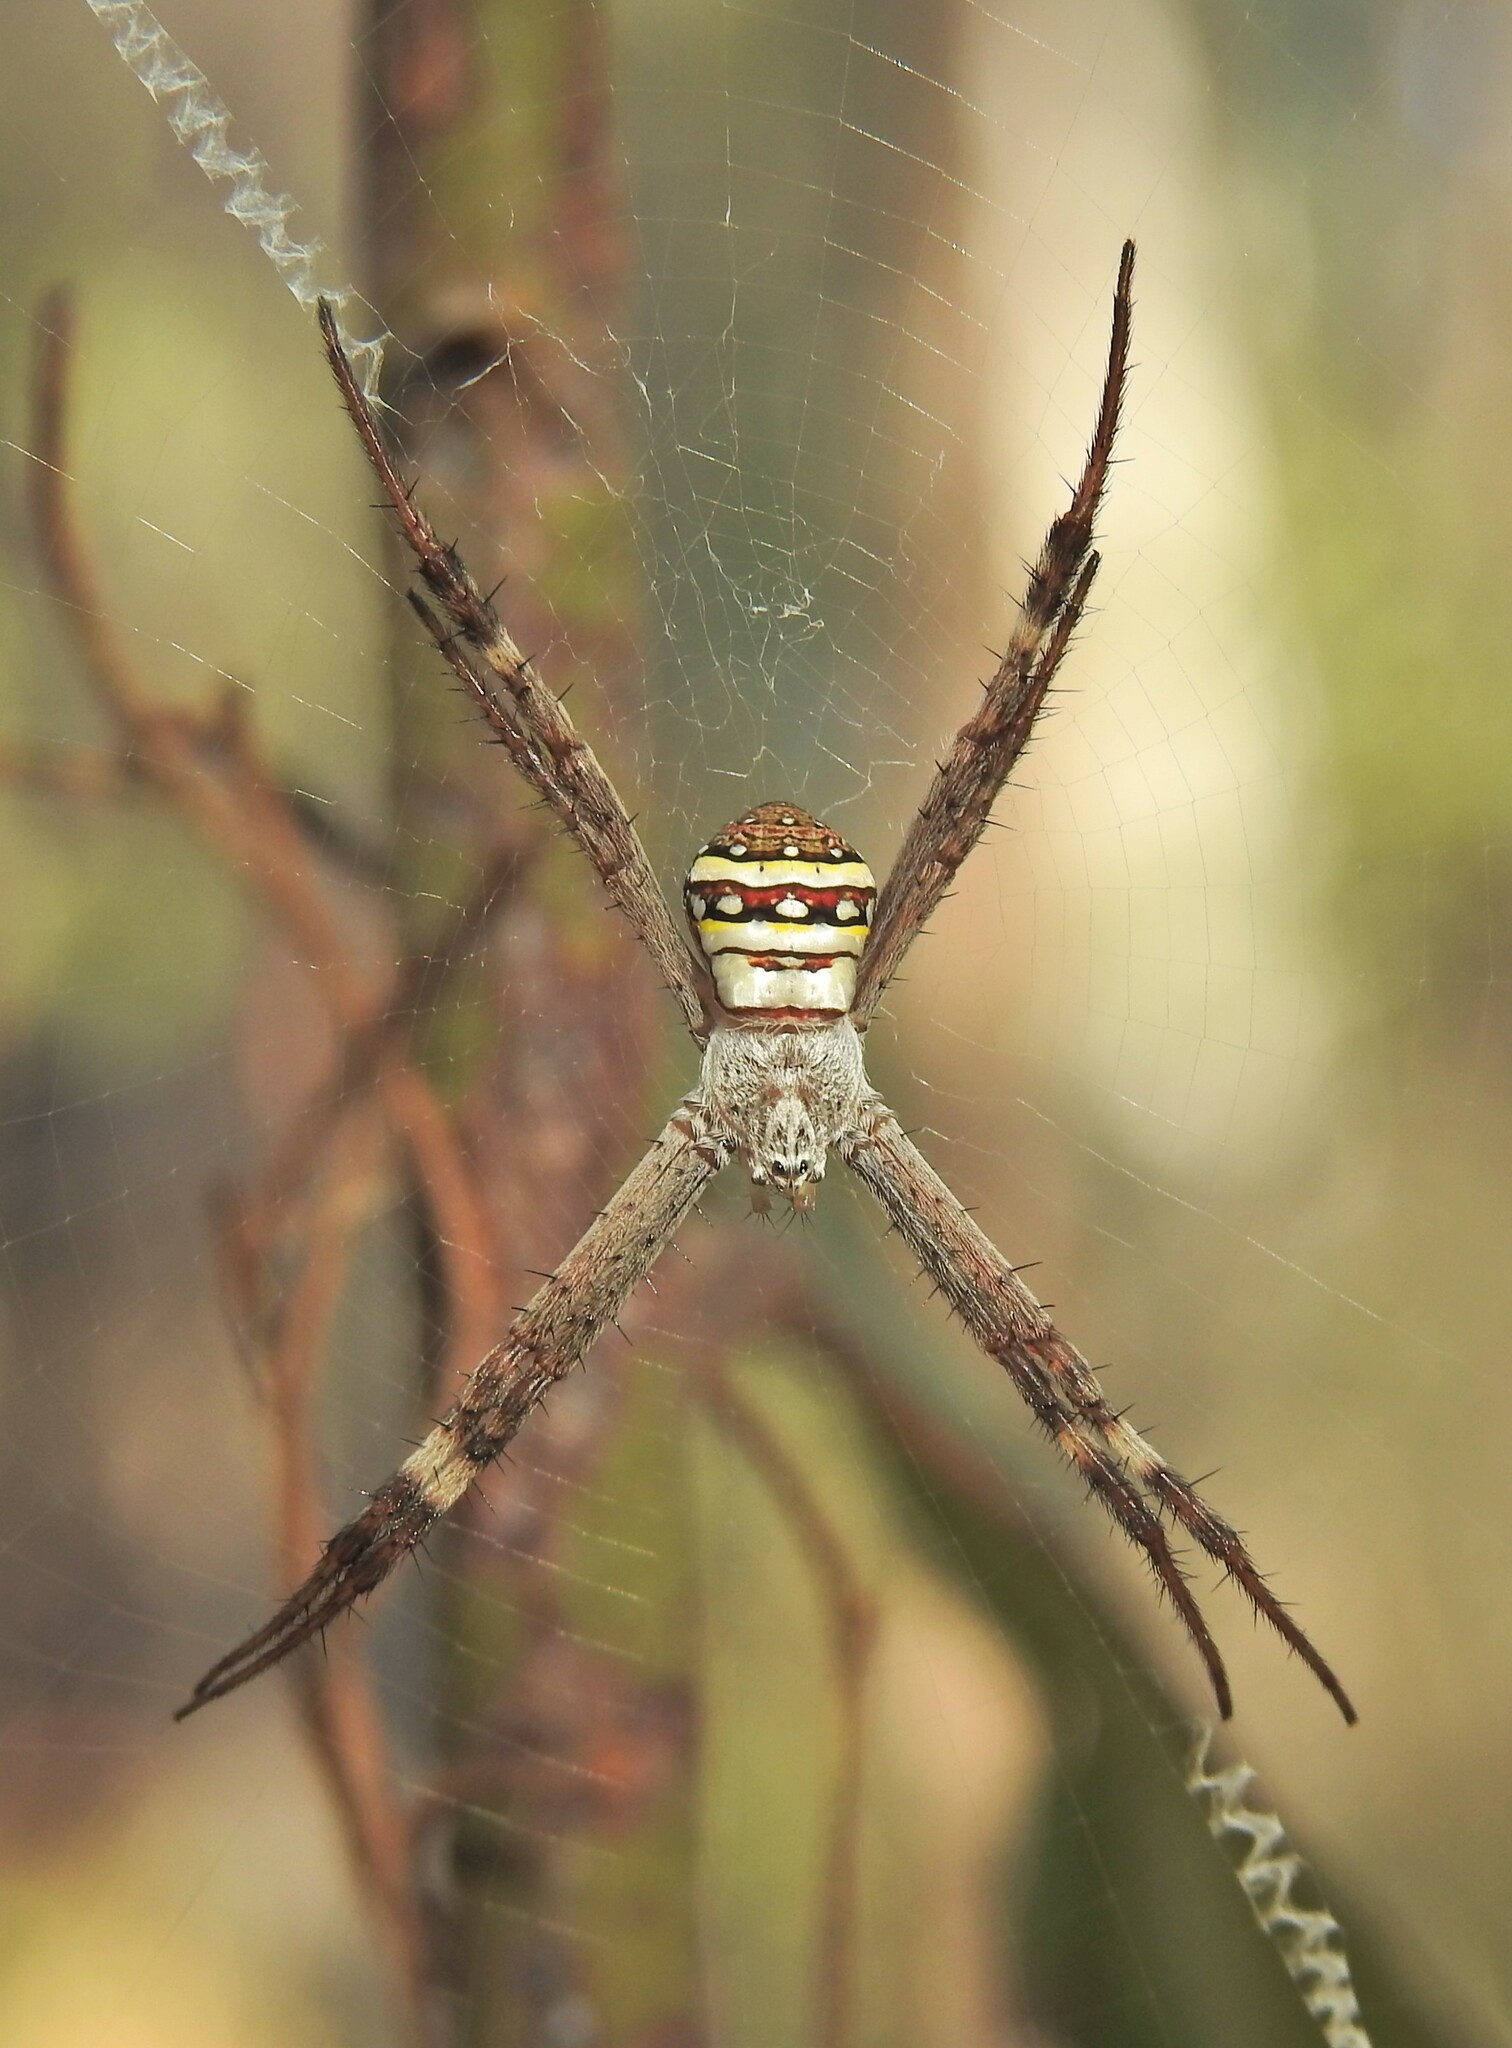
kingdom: Animalia
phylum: Arthropoda
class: Arachnida
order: Araneae
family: Araneidae
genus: Argiope
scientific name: Argiope keyserlingi
